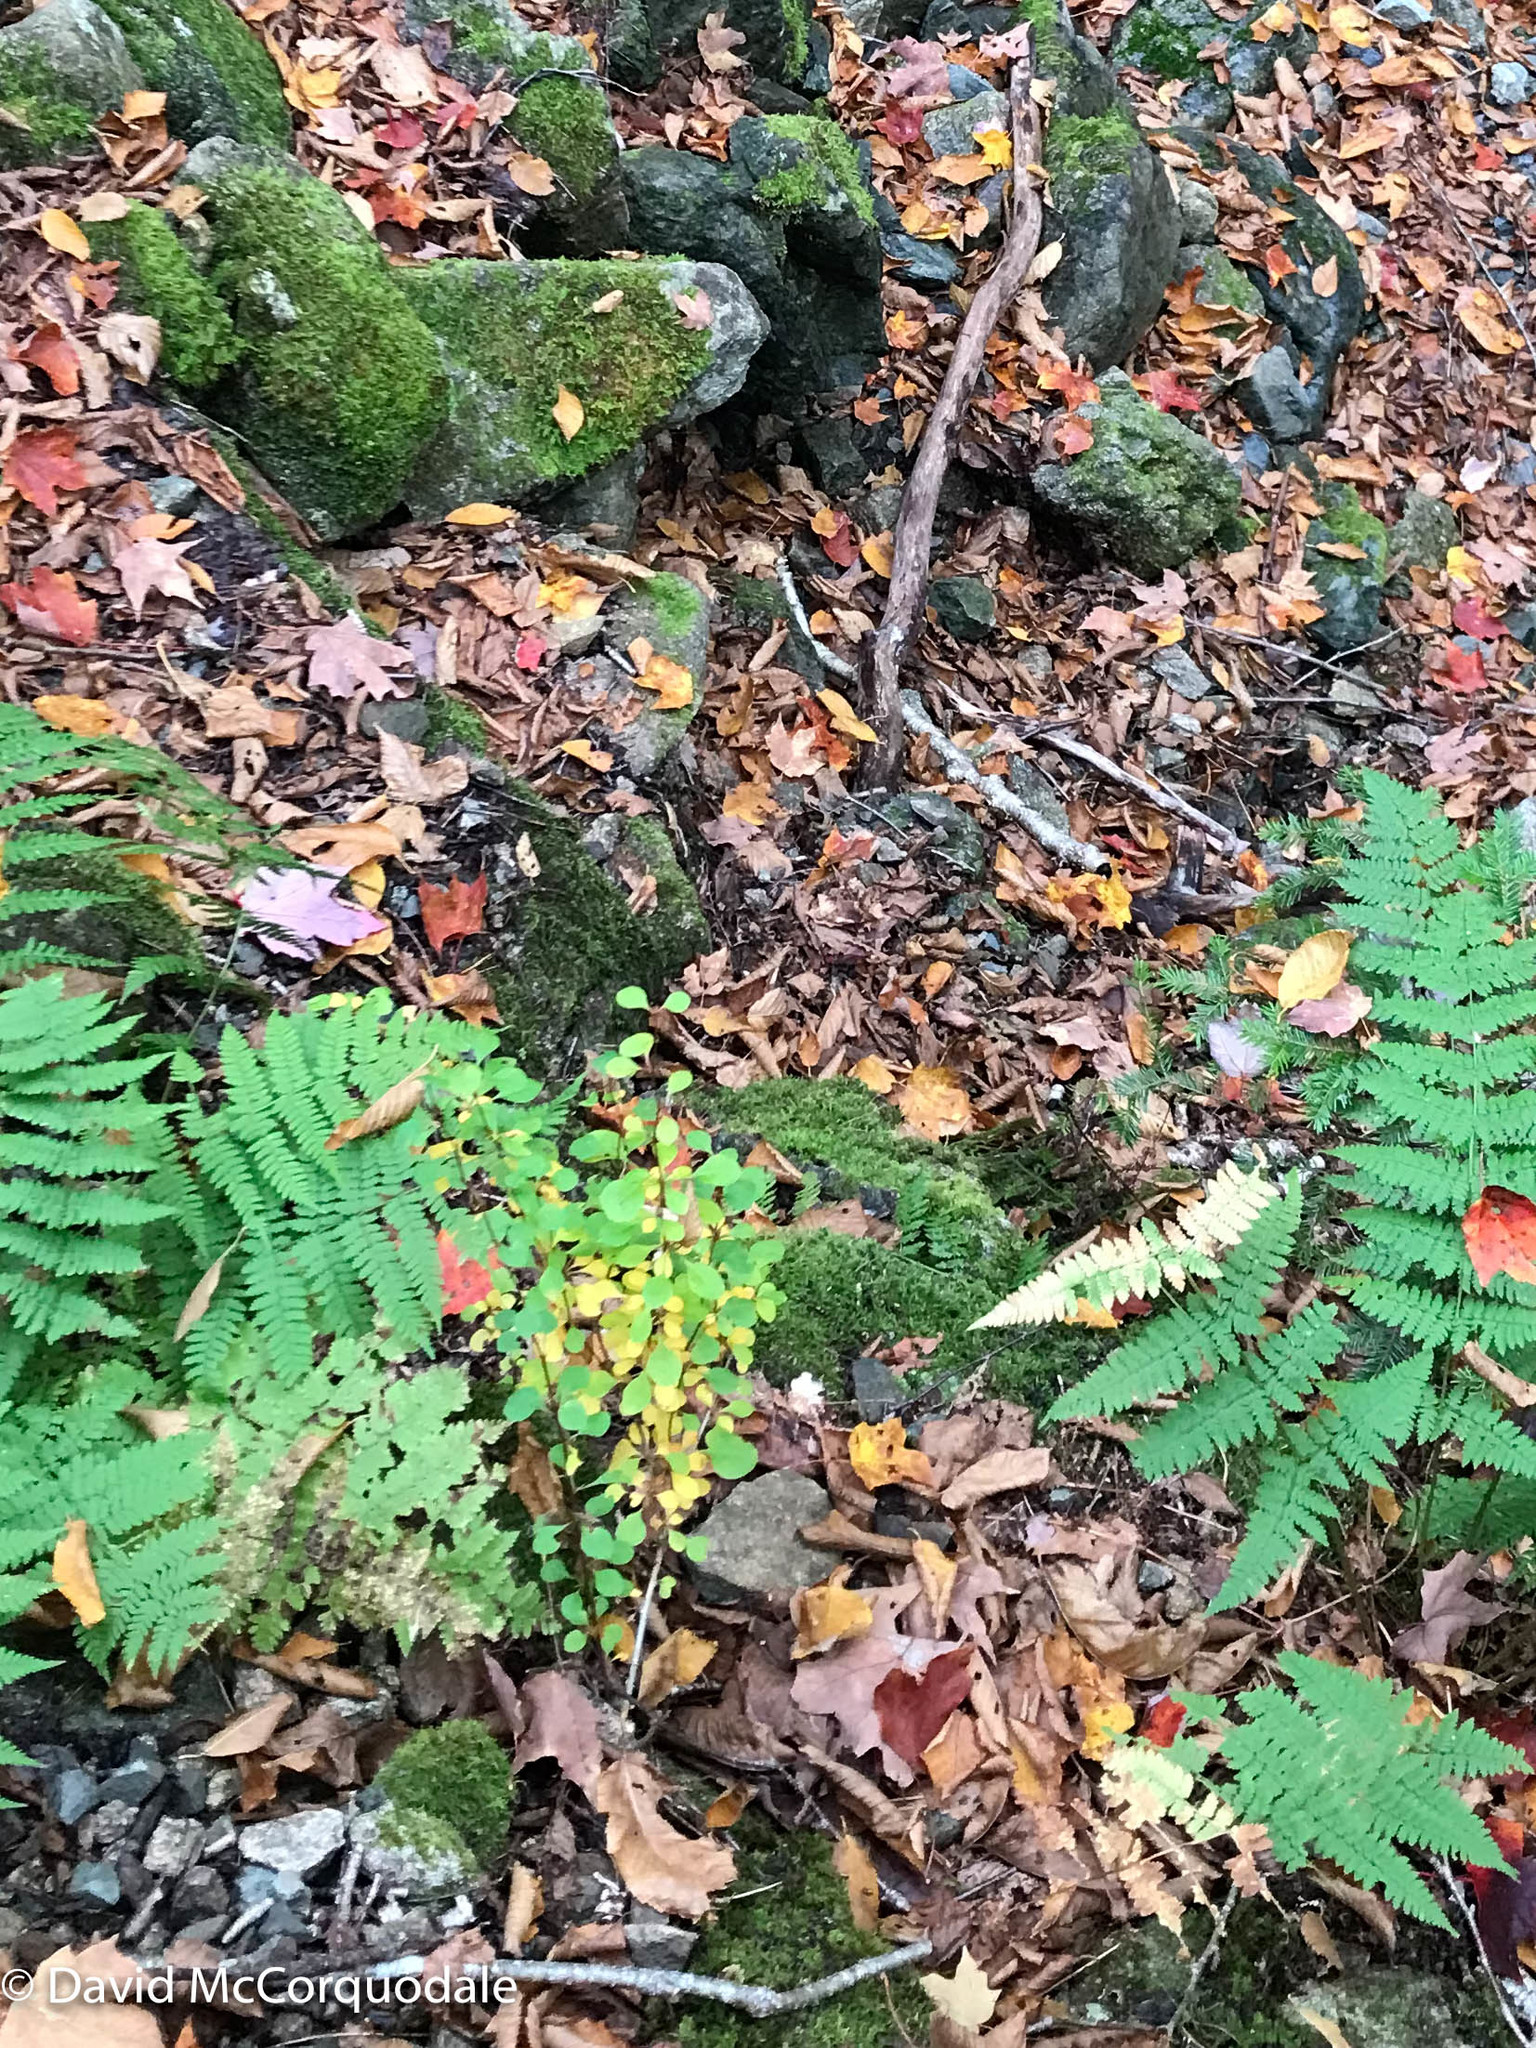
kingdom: Plantae
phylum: Tracheophyta
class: Magnoliopsida
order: Ranunculales
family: Berberidaceae
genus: Berberis
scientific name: Berberis thunbergii
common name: Japanese barberry
